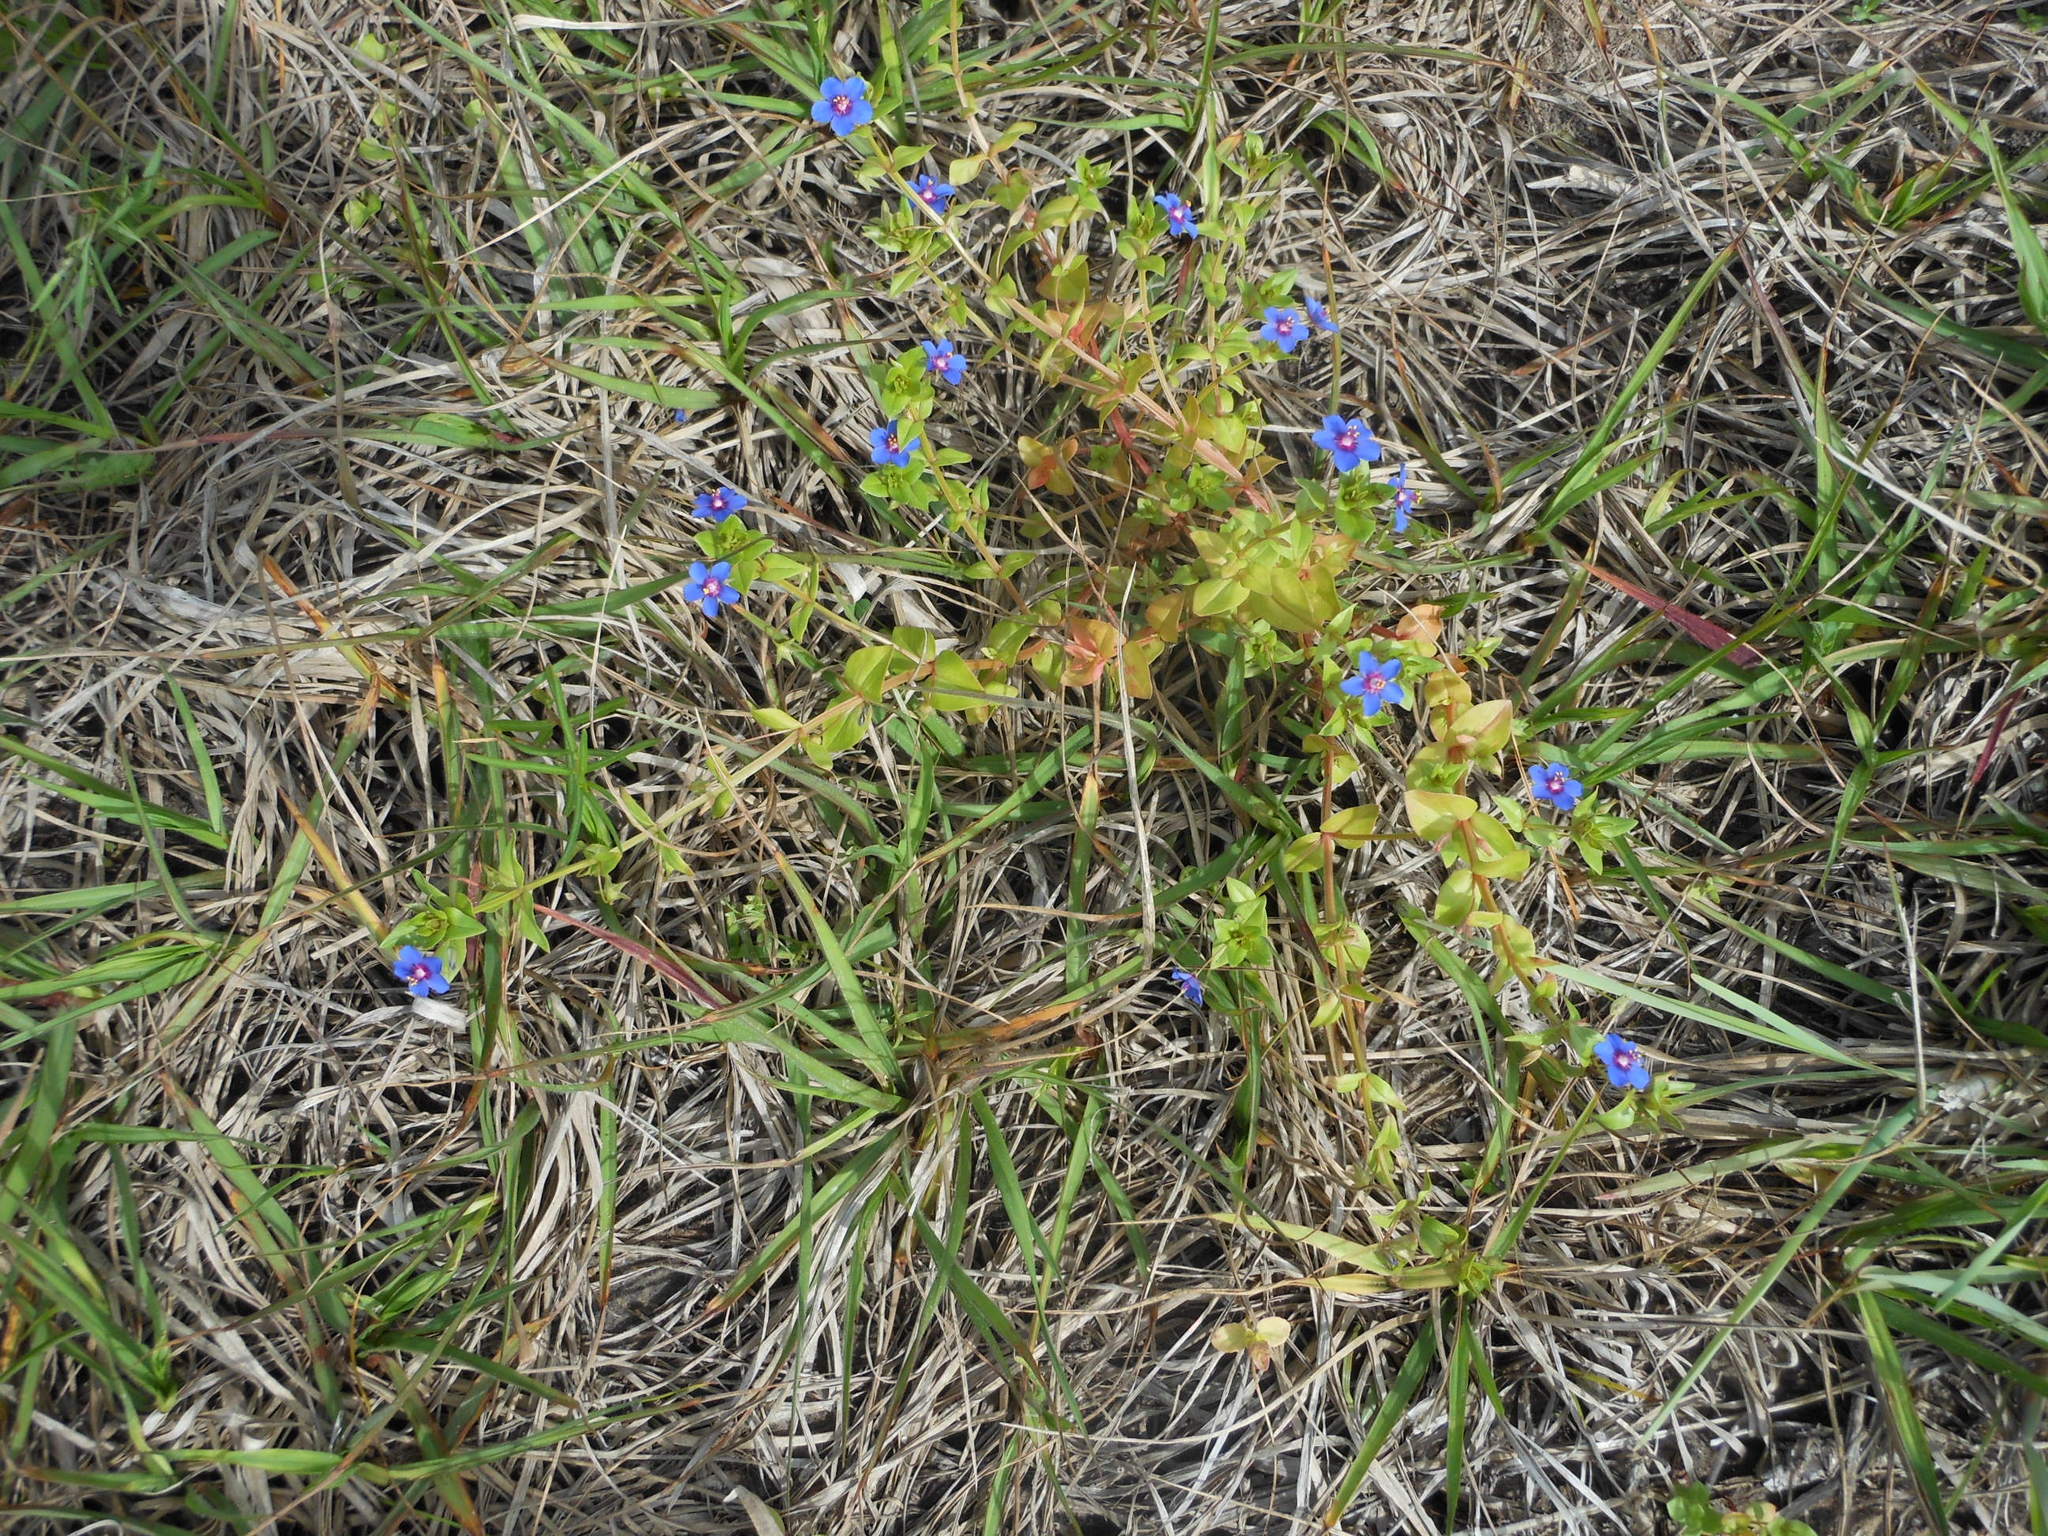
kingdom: Plantae
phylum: Tracheophyta
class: Magnoliopsida
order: Ericales
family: Primulaceae
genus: Lysimachia
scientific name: Lysimachia arvensis
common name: Scarlet pimpernel
